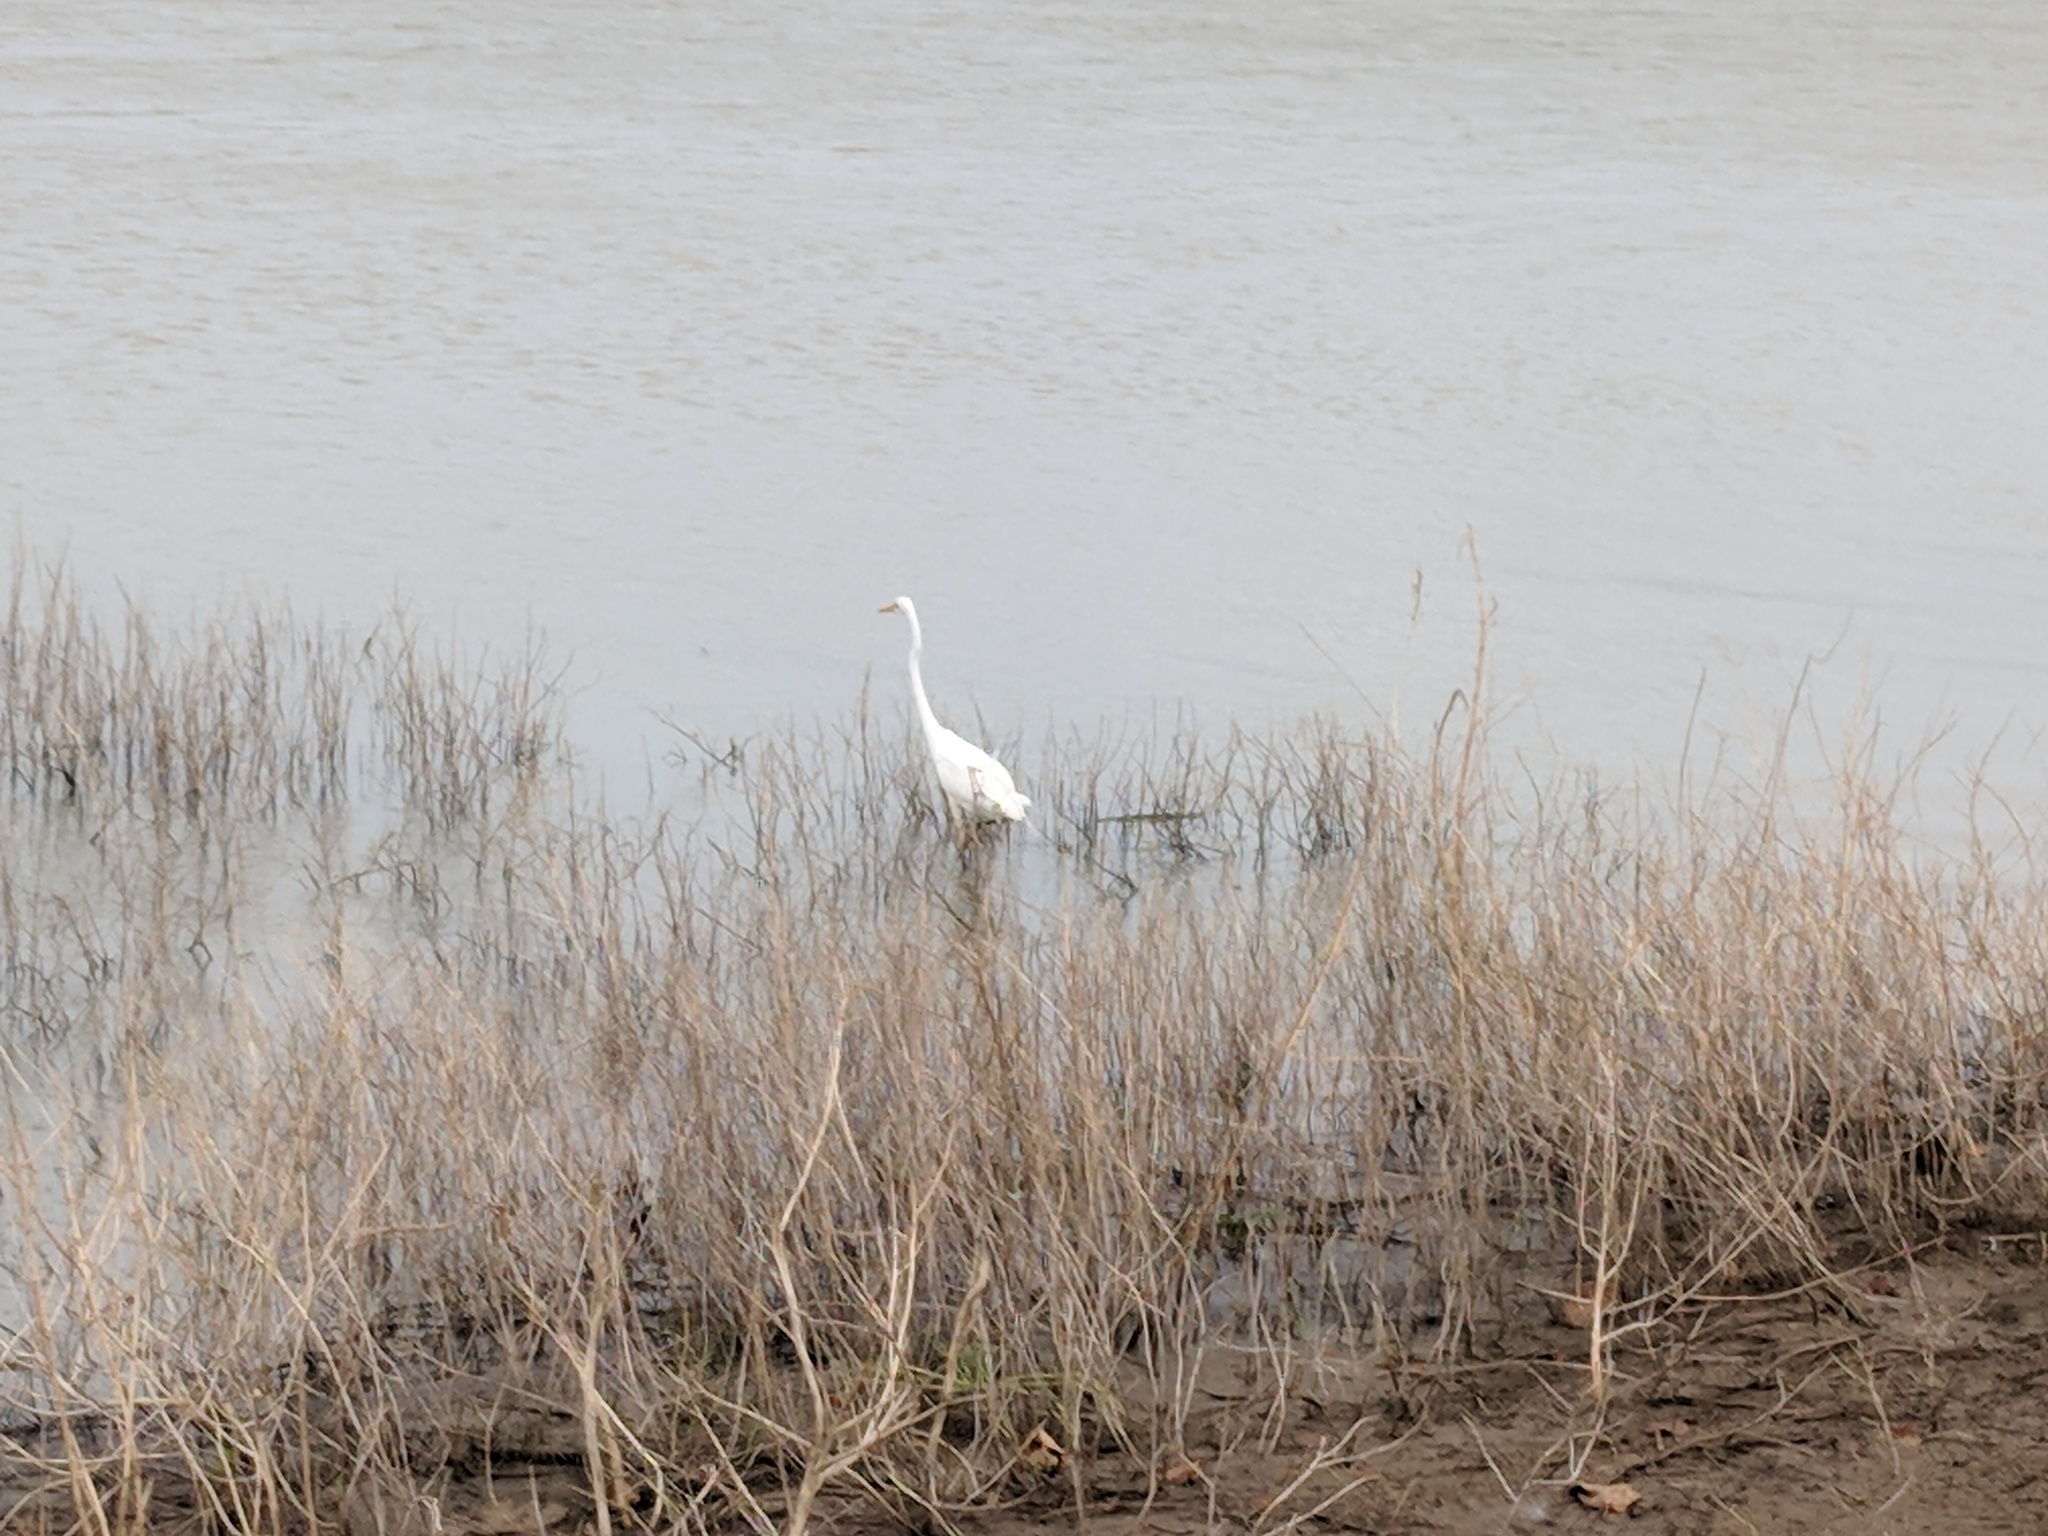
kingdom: Animalia
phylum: Chordata
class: Aves
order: Pelecaniformes
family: Ardeidae
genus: Egretta
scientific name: Egretta garzetta
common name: Little egret
